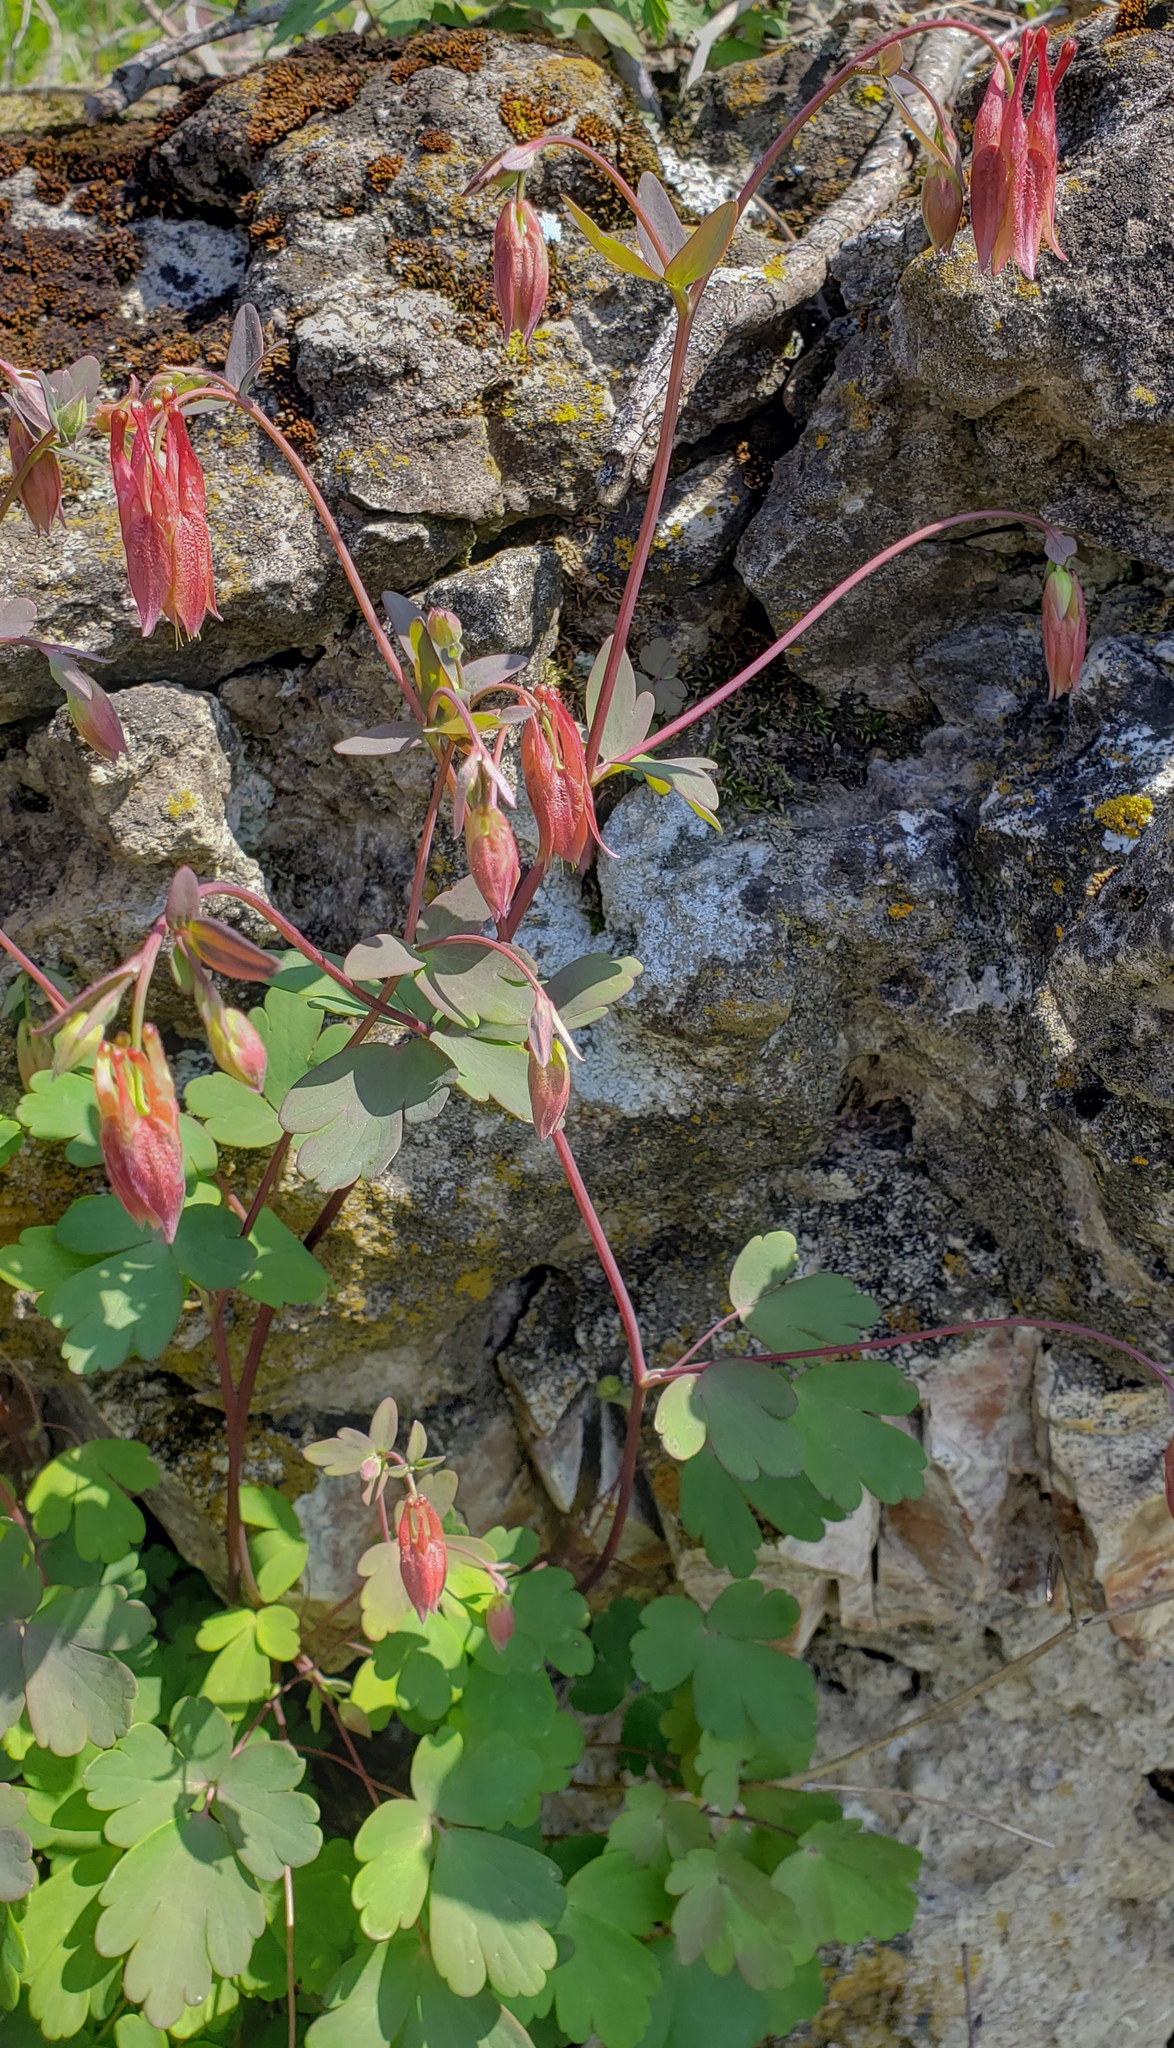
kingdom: Plantae
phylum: Tracheophyta
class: Magnoliopsida
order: Ranunculales
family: Ranunculaceae
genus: Aquilegia
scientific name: Aquilegia canadensis
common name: American columbine
